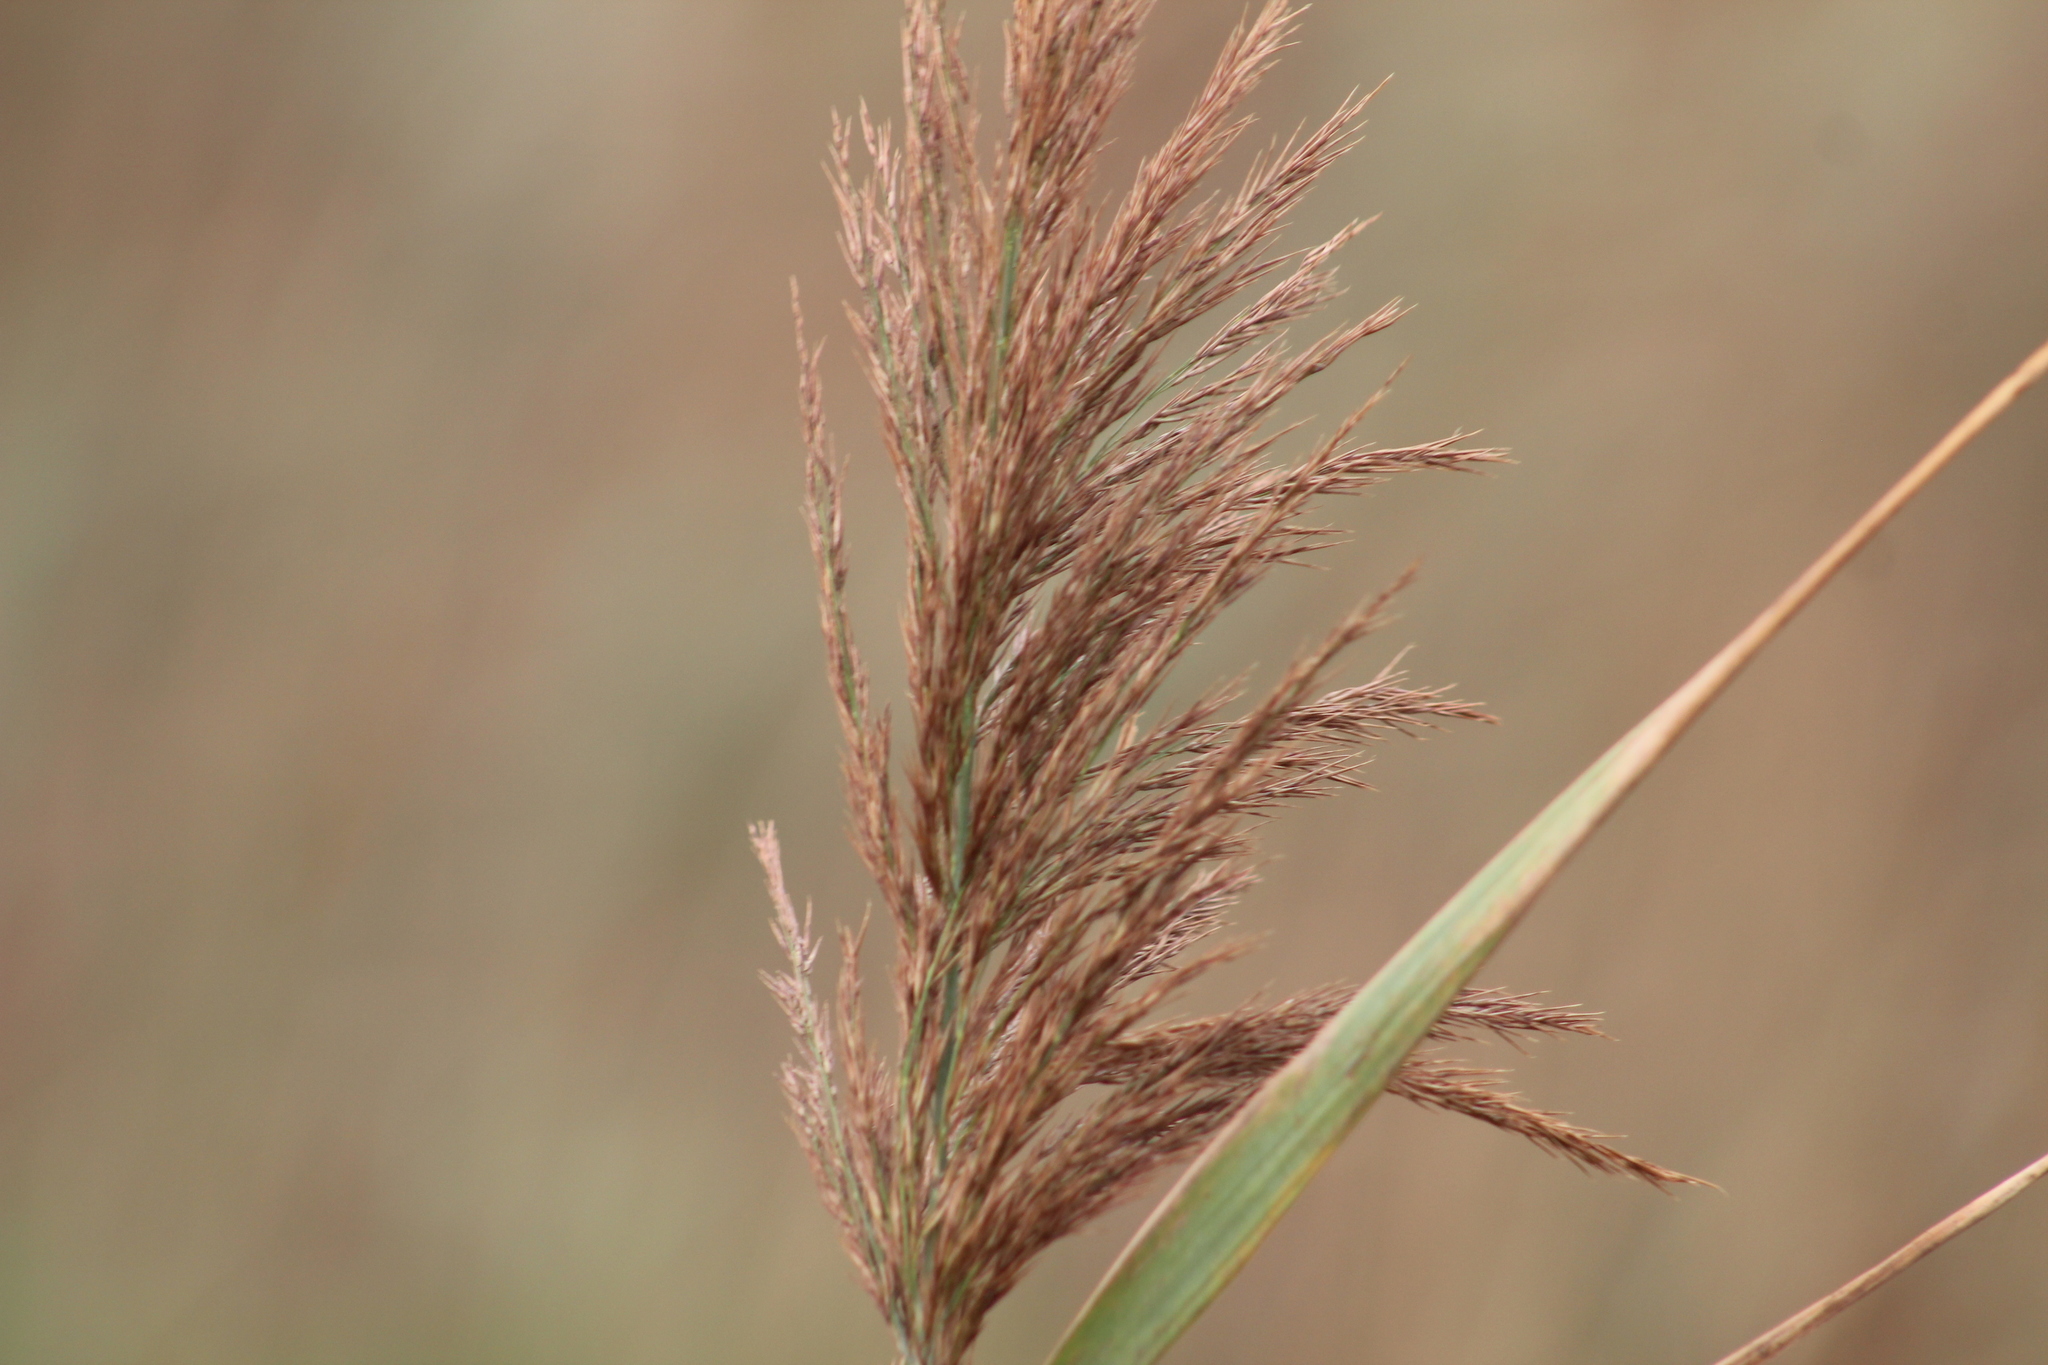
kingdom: Plantae
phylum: Tracheophyta
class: Liliopsida
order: Poales
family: Poaceae
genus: Phragmites
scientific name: Phragmites australis
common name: Common reed
